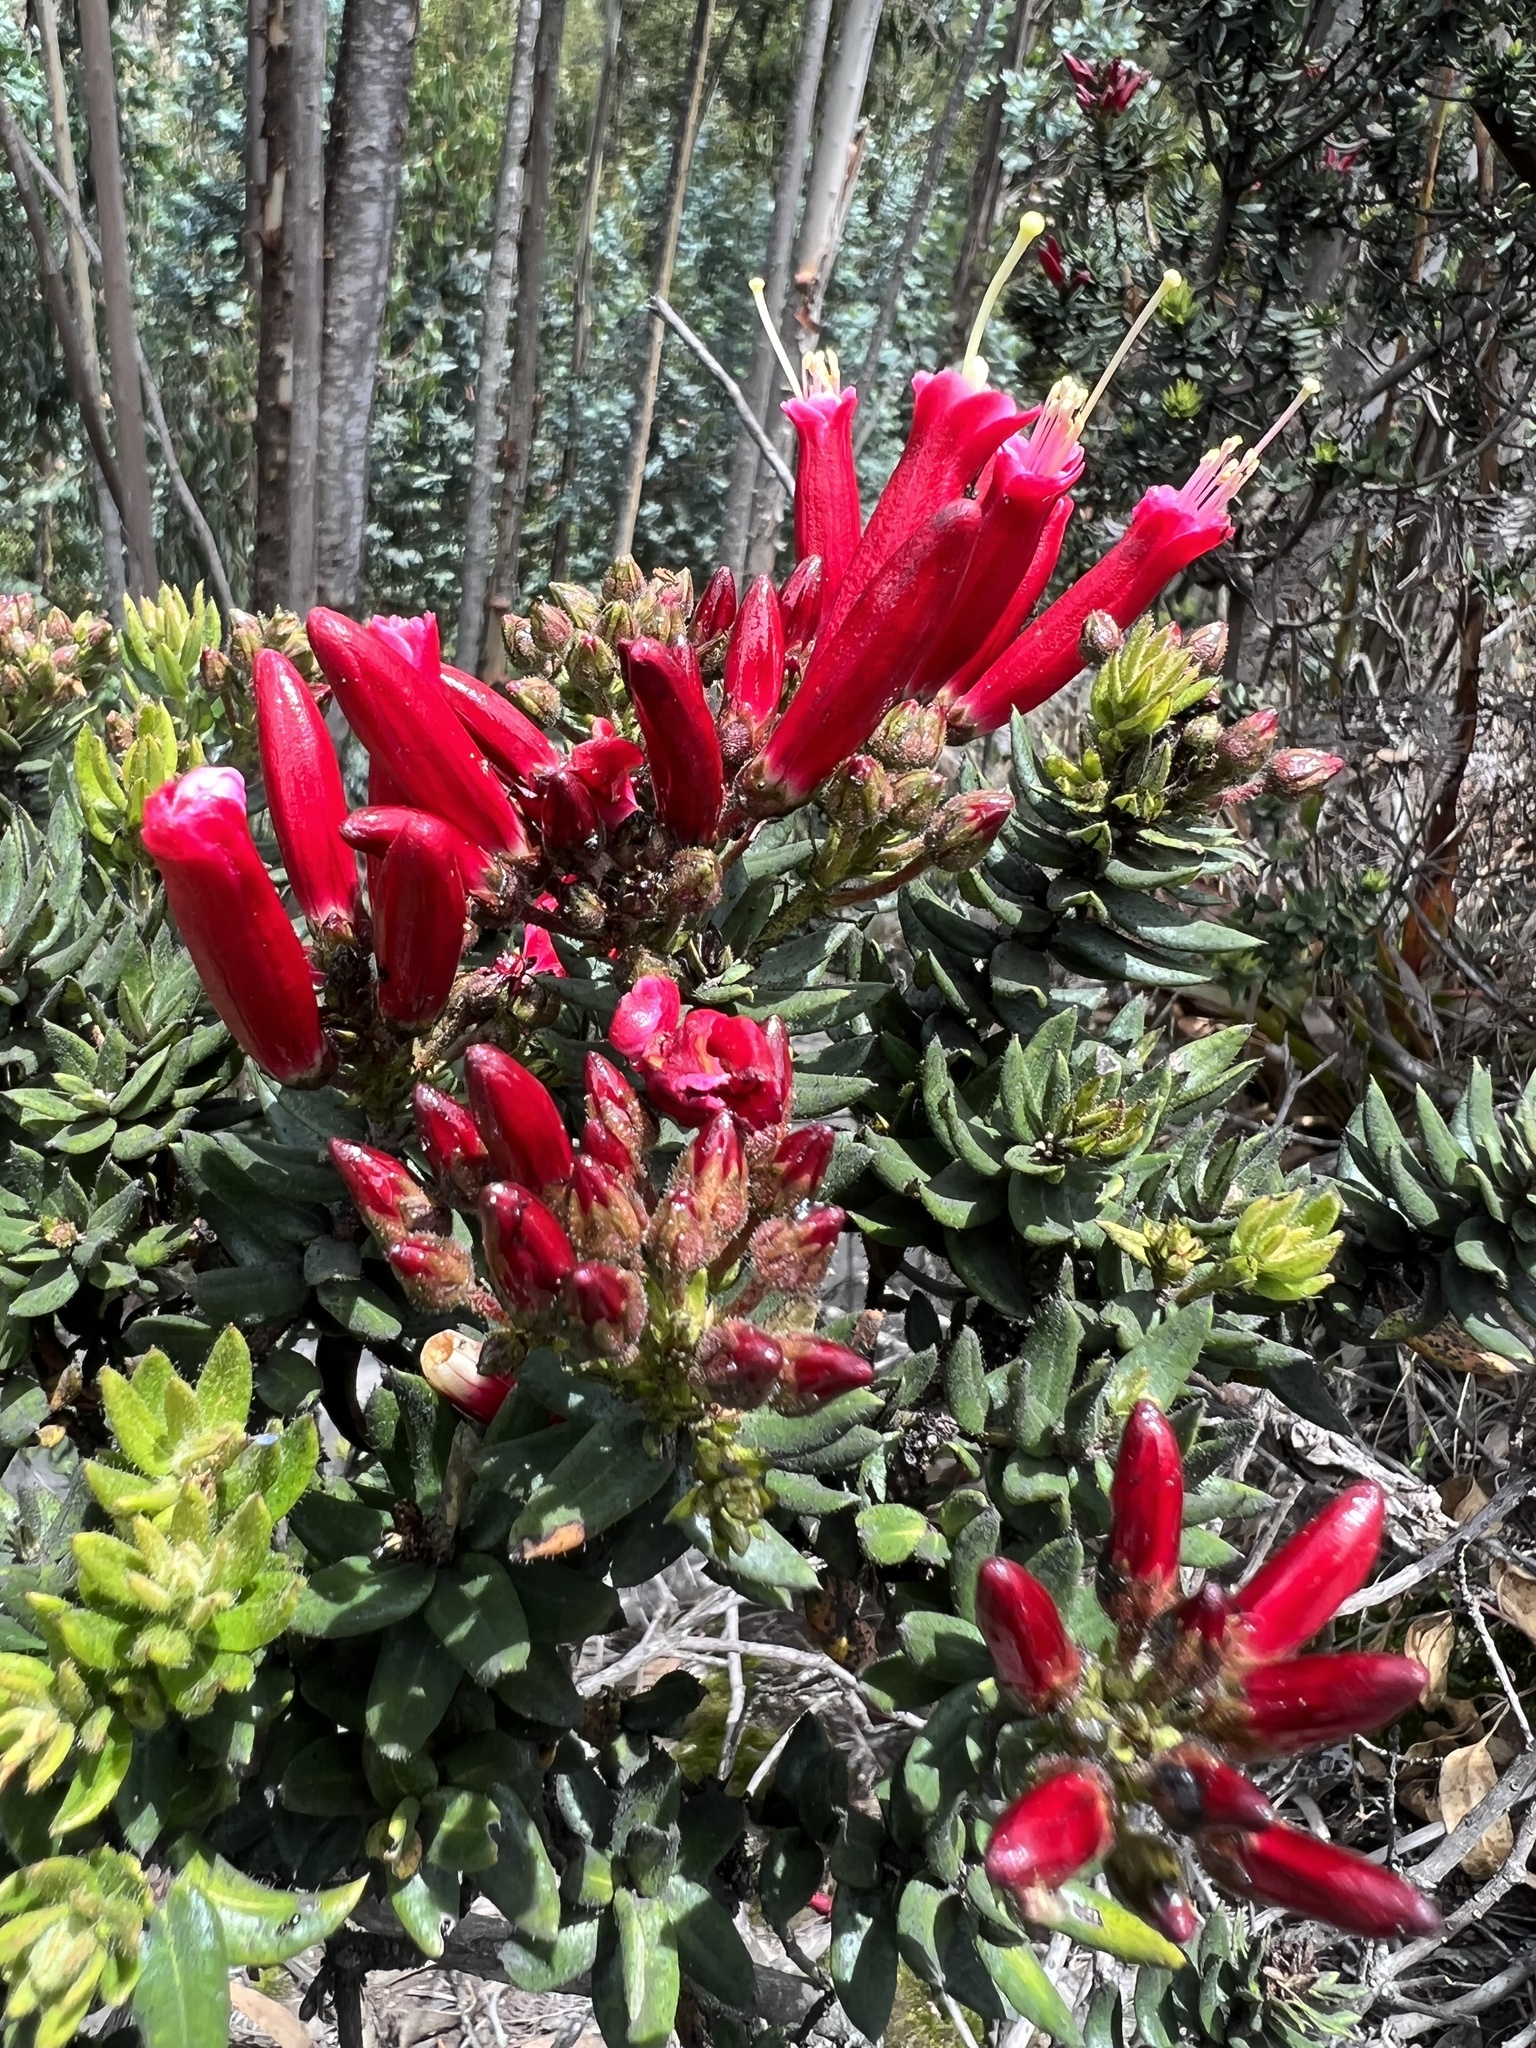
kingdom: Plantae
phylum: Tracheophyta
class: Magnoliopsida
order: Ericales
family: Ericaceae
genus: Bejaria
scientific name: Bejaria resinosa
